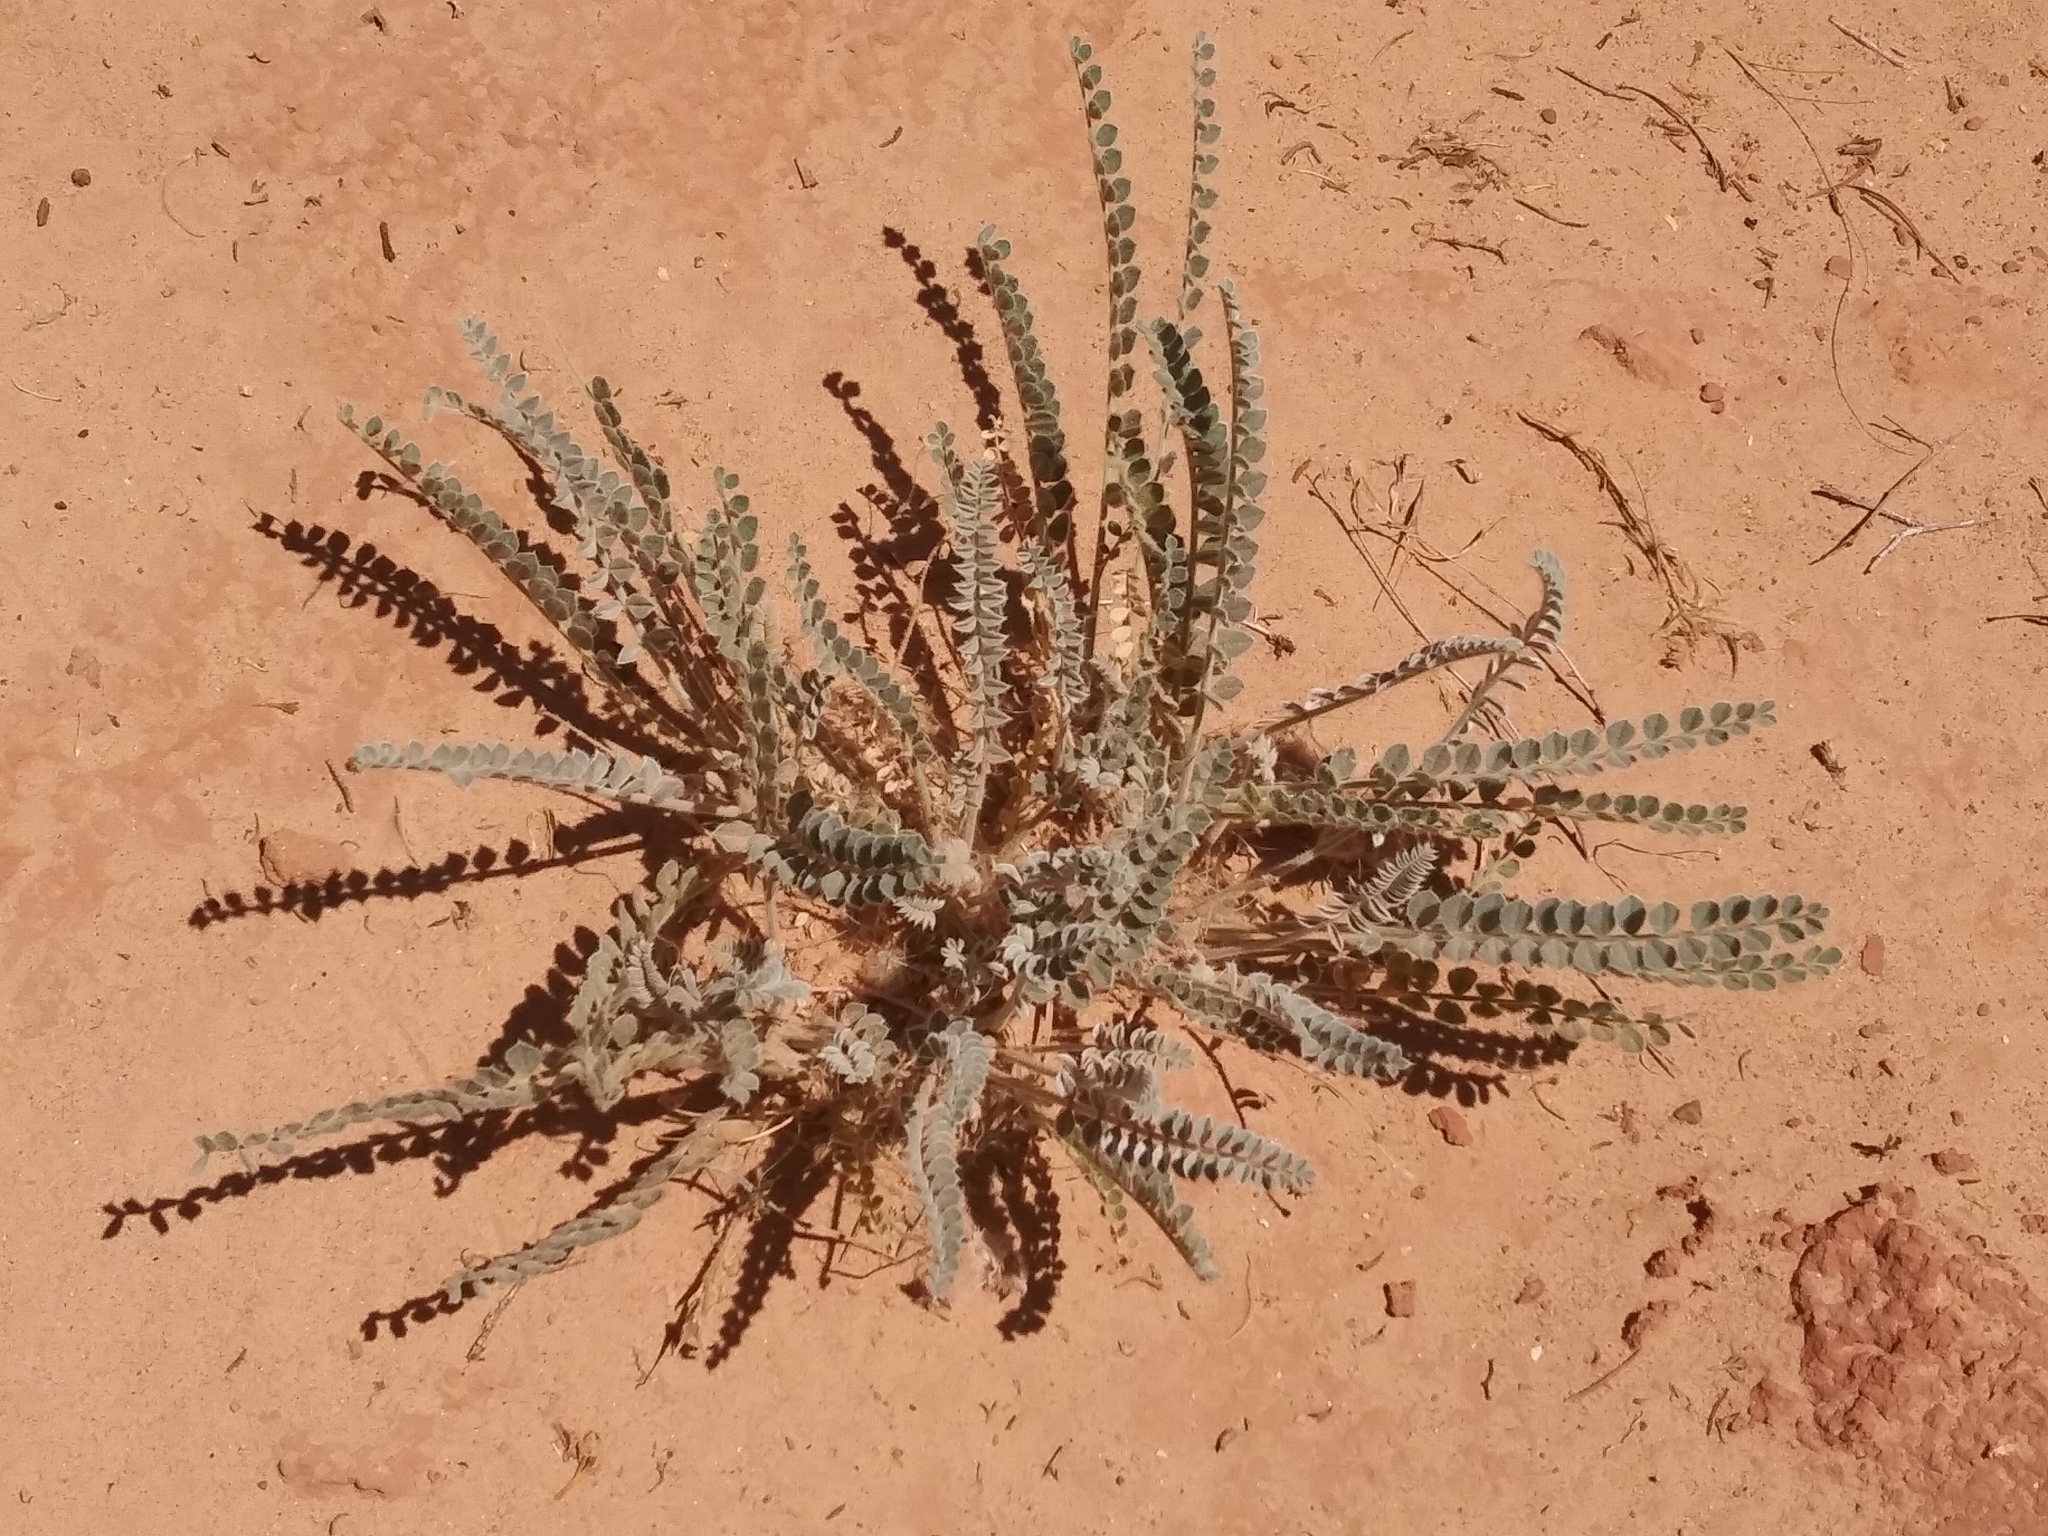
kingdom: Plantae
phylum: Tracheophyta
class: Magnoliopsida
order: Fabales
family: Fabaceae
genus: Astragalus
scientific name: Astragalus mollissimus
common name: Woolly locoweed
